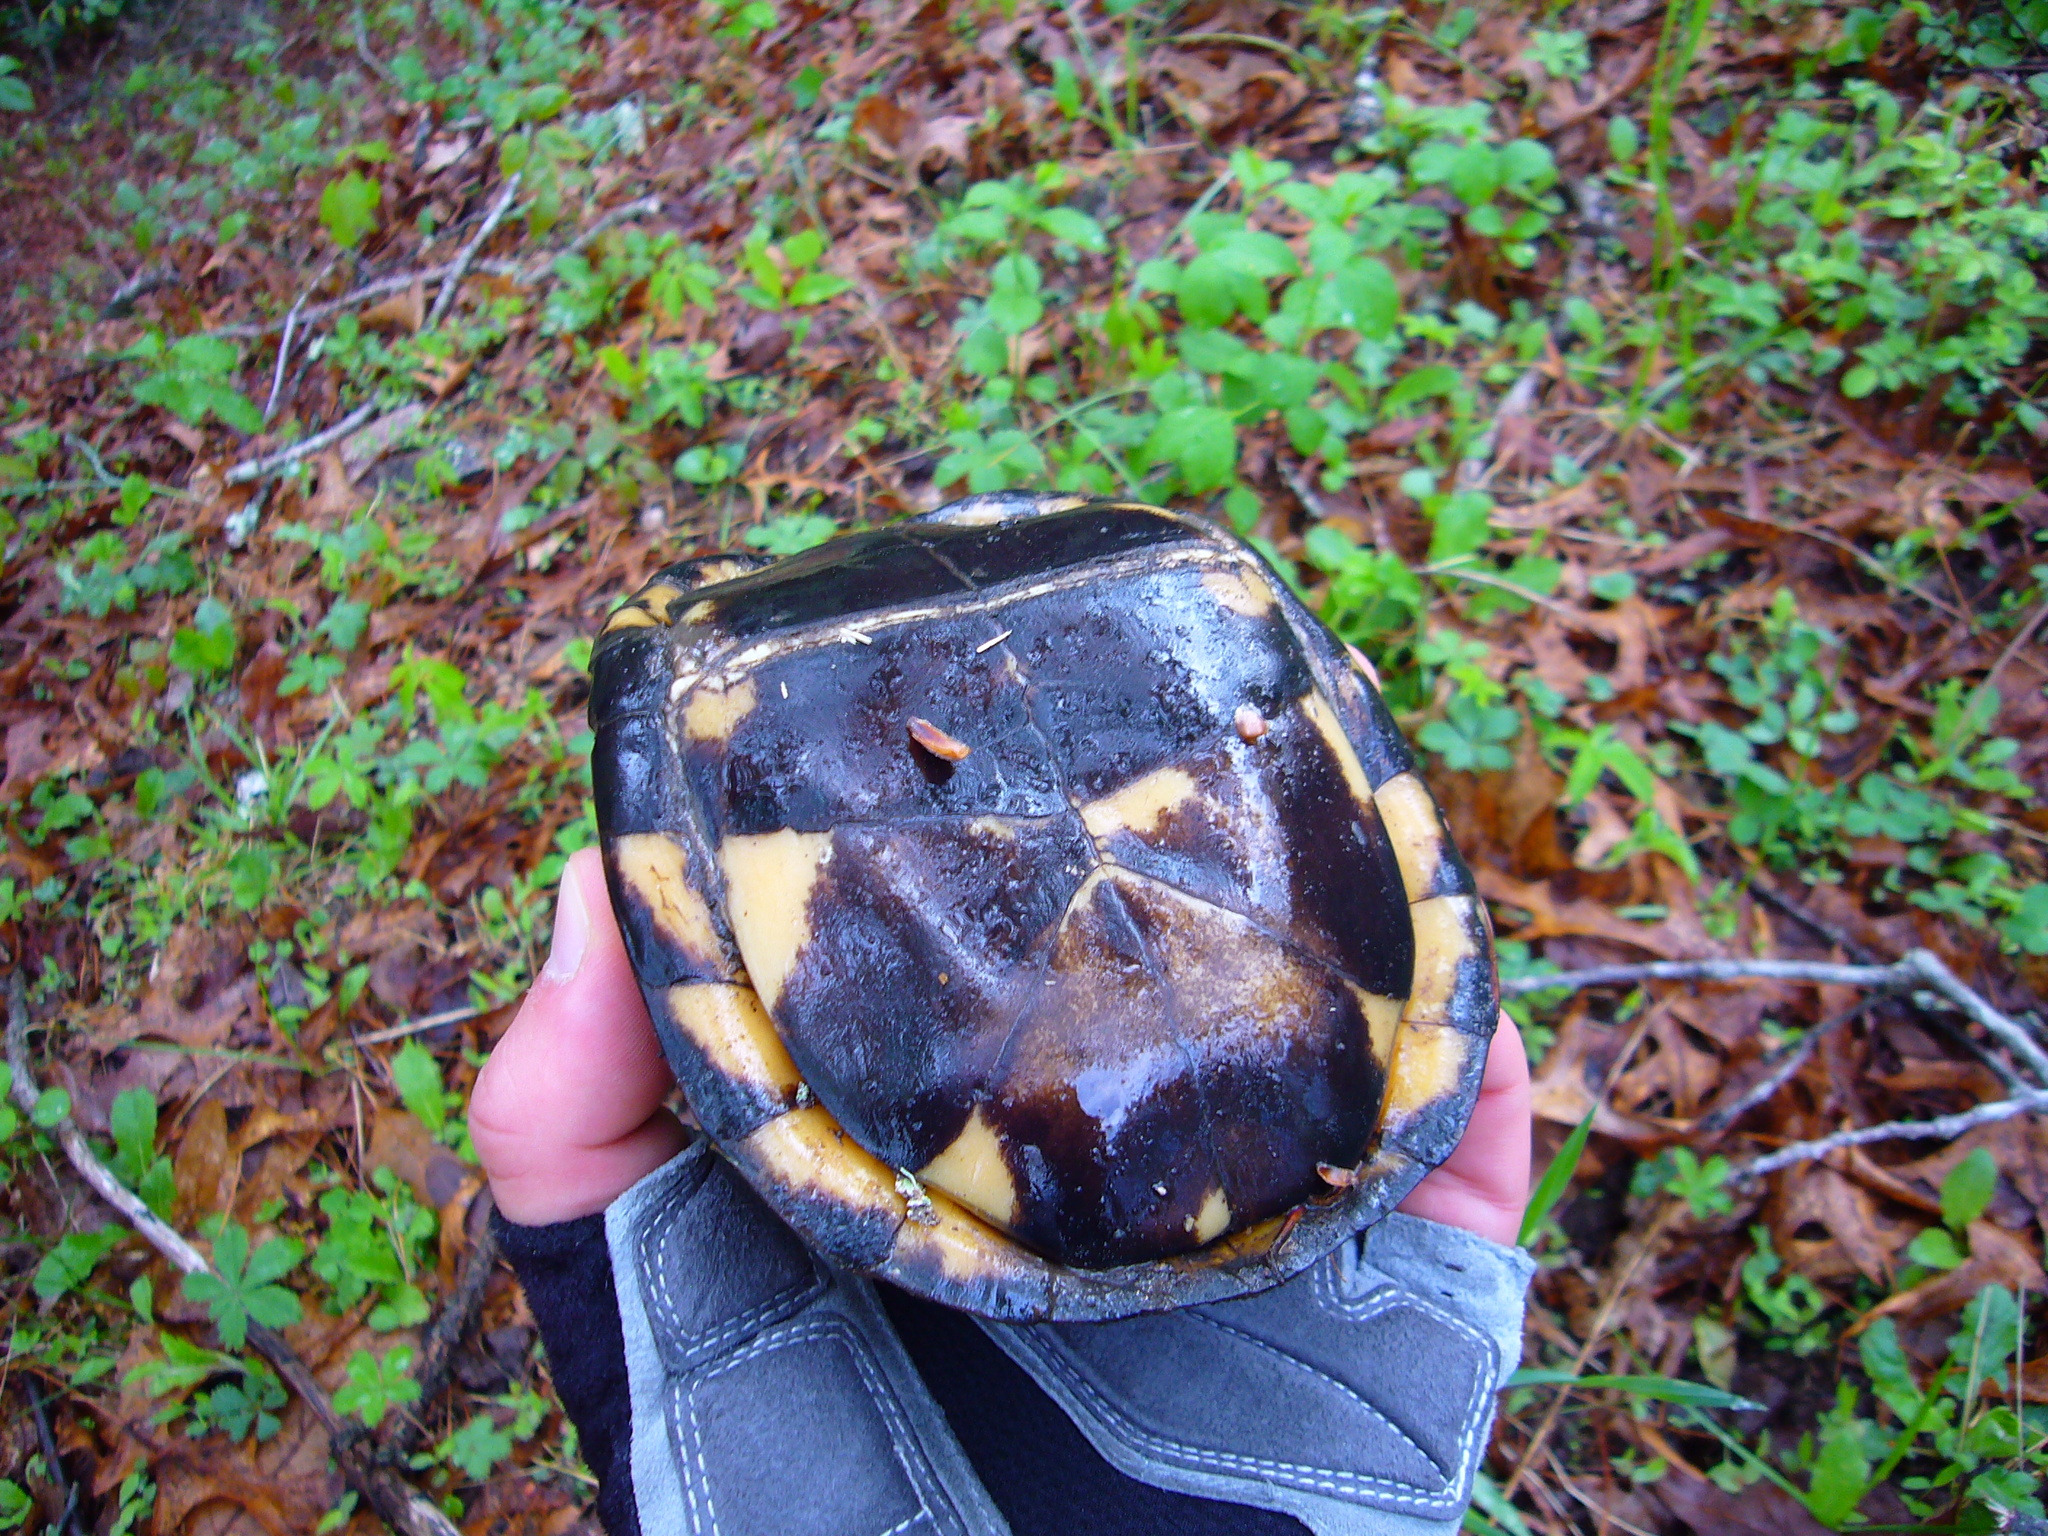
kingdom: Animalia
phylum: Chordata
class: Testudines
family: Emydidae
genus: Terrapene
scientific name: Terrapene carolina
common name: Common box turtle
